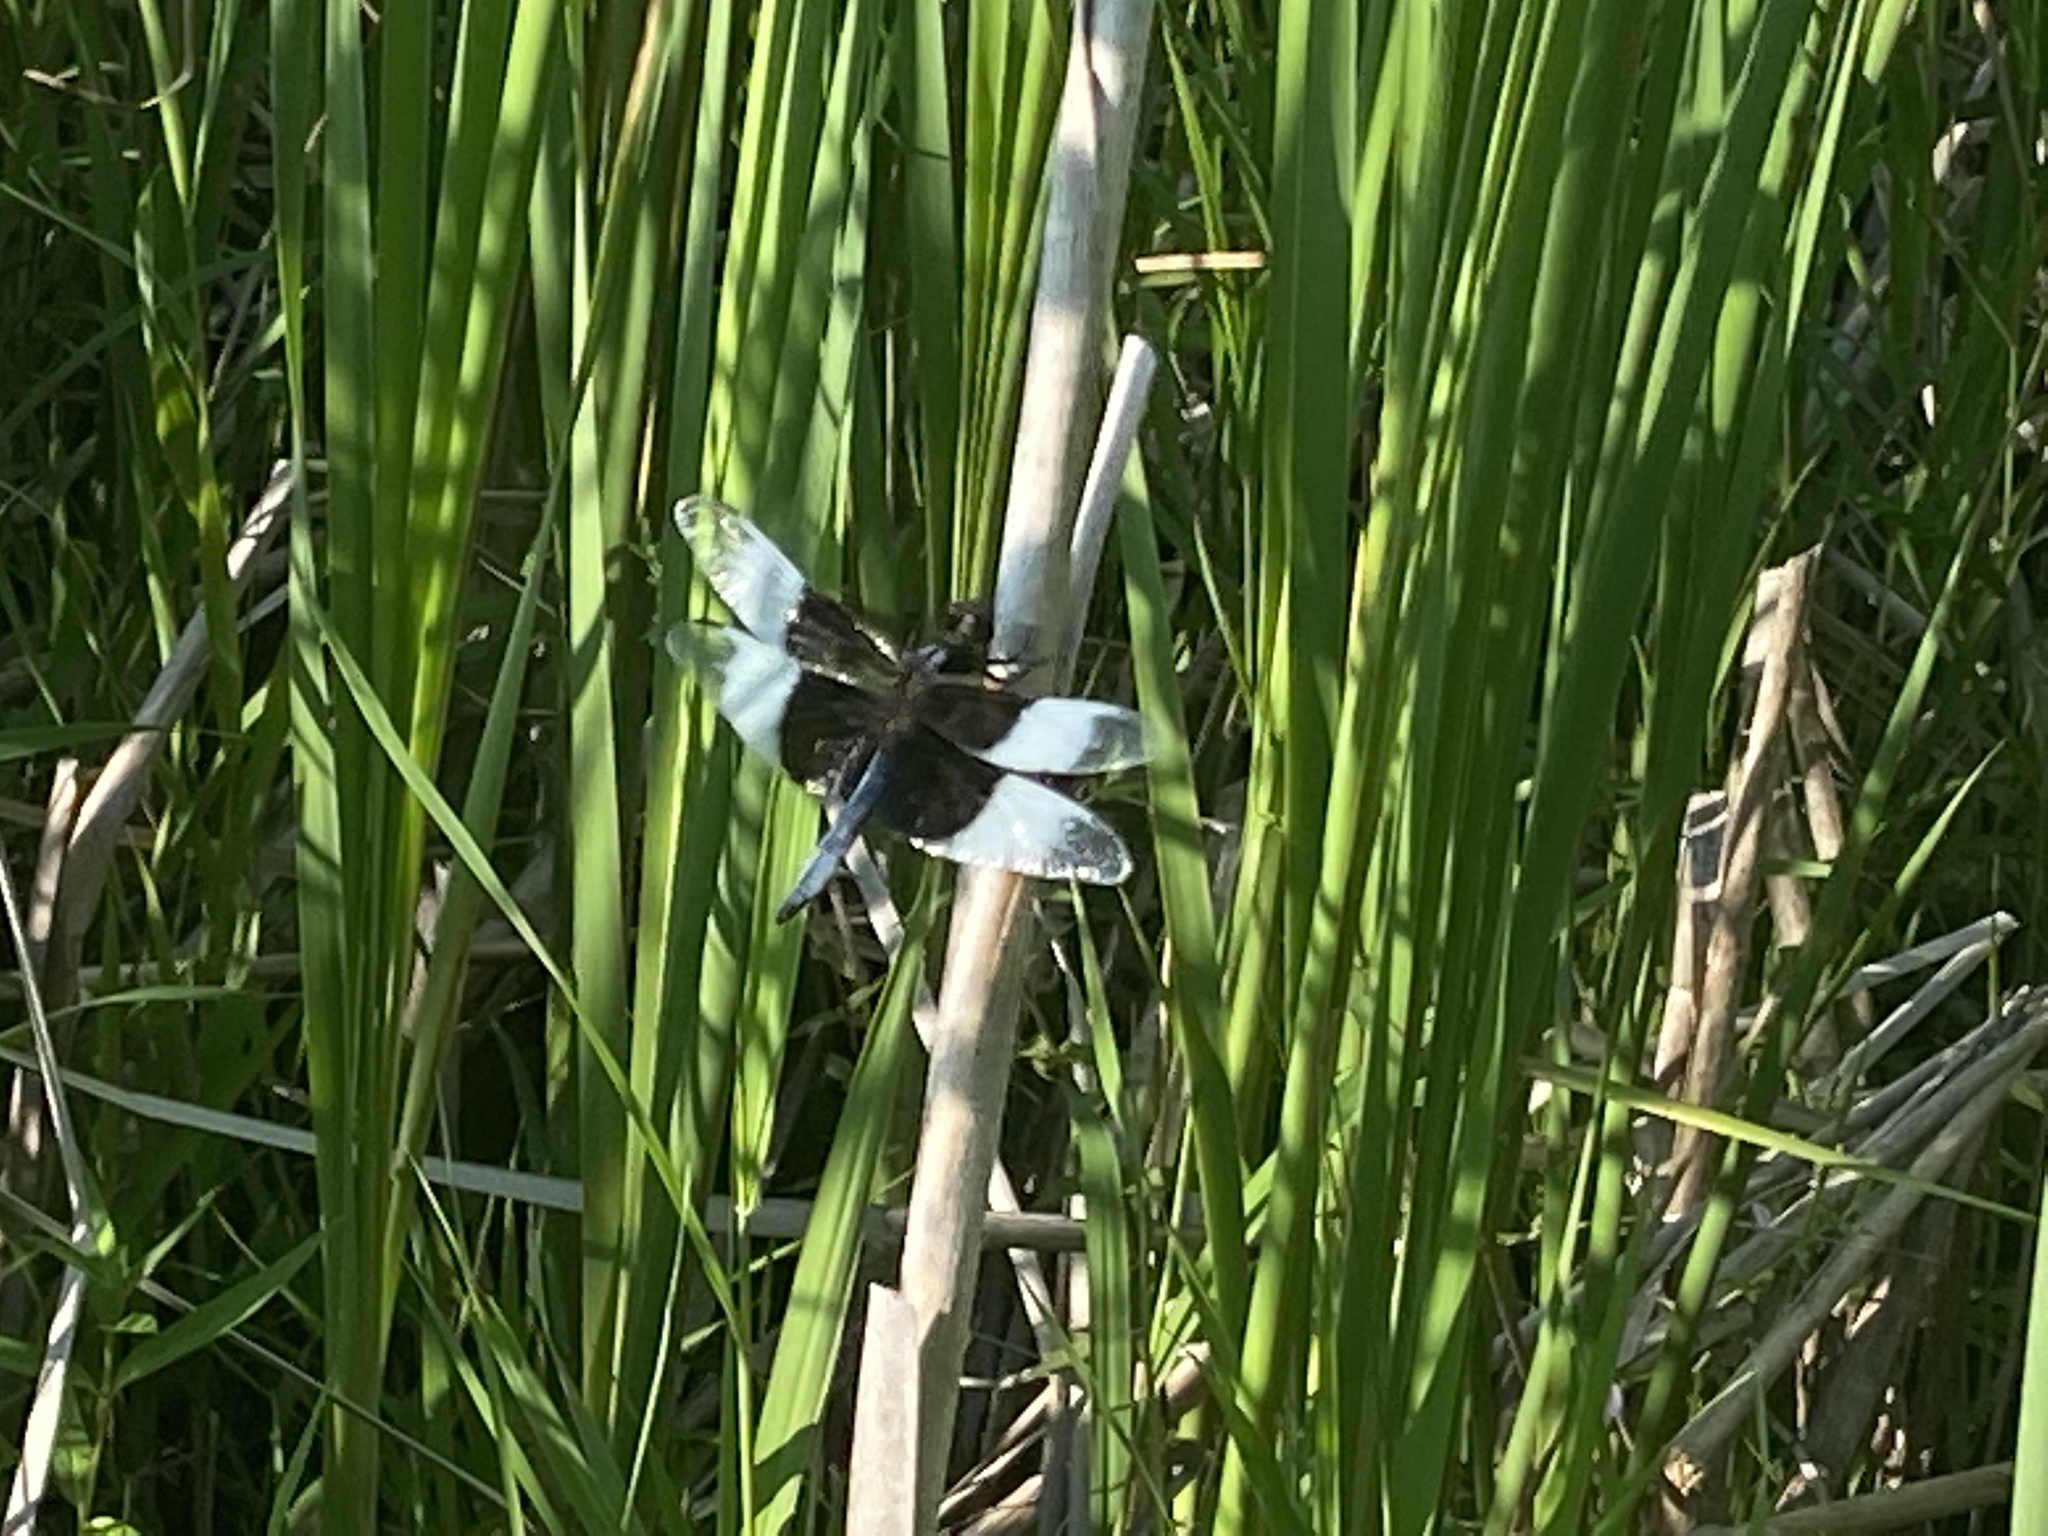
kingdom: Animalia
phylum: Arthropoda
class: Insecta
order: Odonata
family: Libellulidae
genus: Libellula
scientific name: Libellula luctuosa
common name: Widow skimmer
